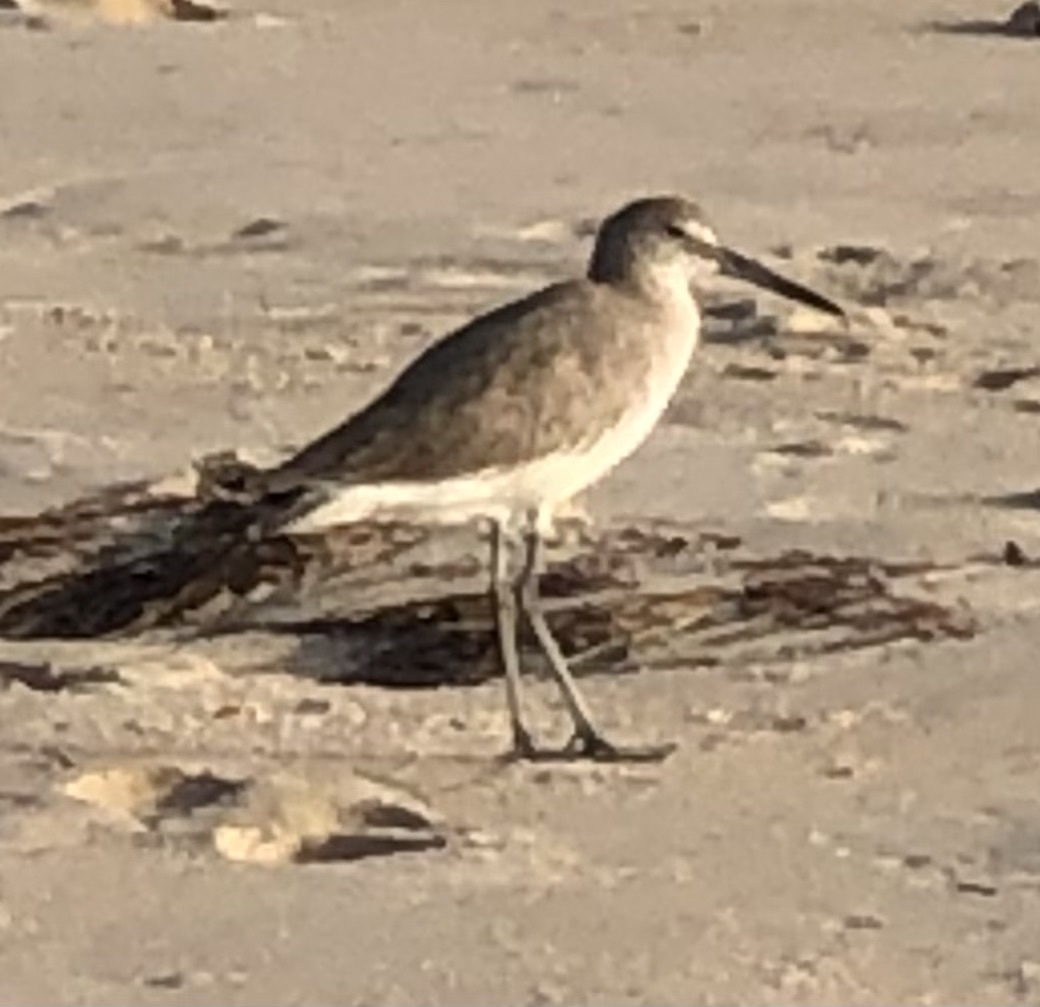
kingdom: Animalia
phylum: Chordata
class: Aves
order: Charadriiformes
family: Scolopacidae
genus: Tringa
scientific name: Tringa semipalmata
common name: Willet
